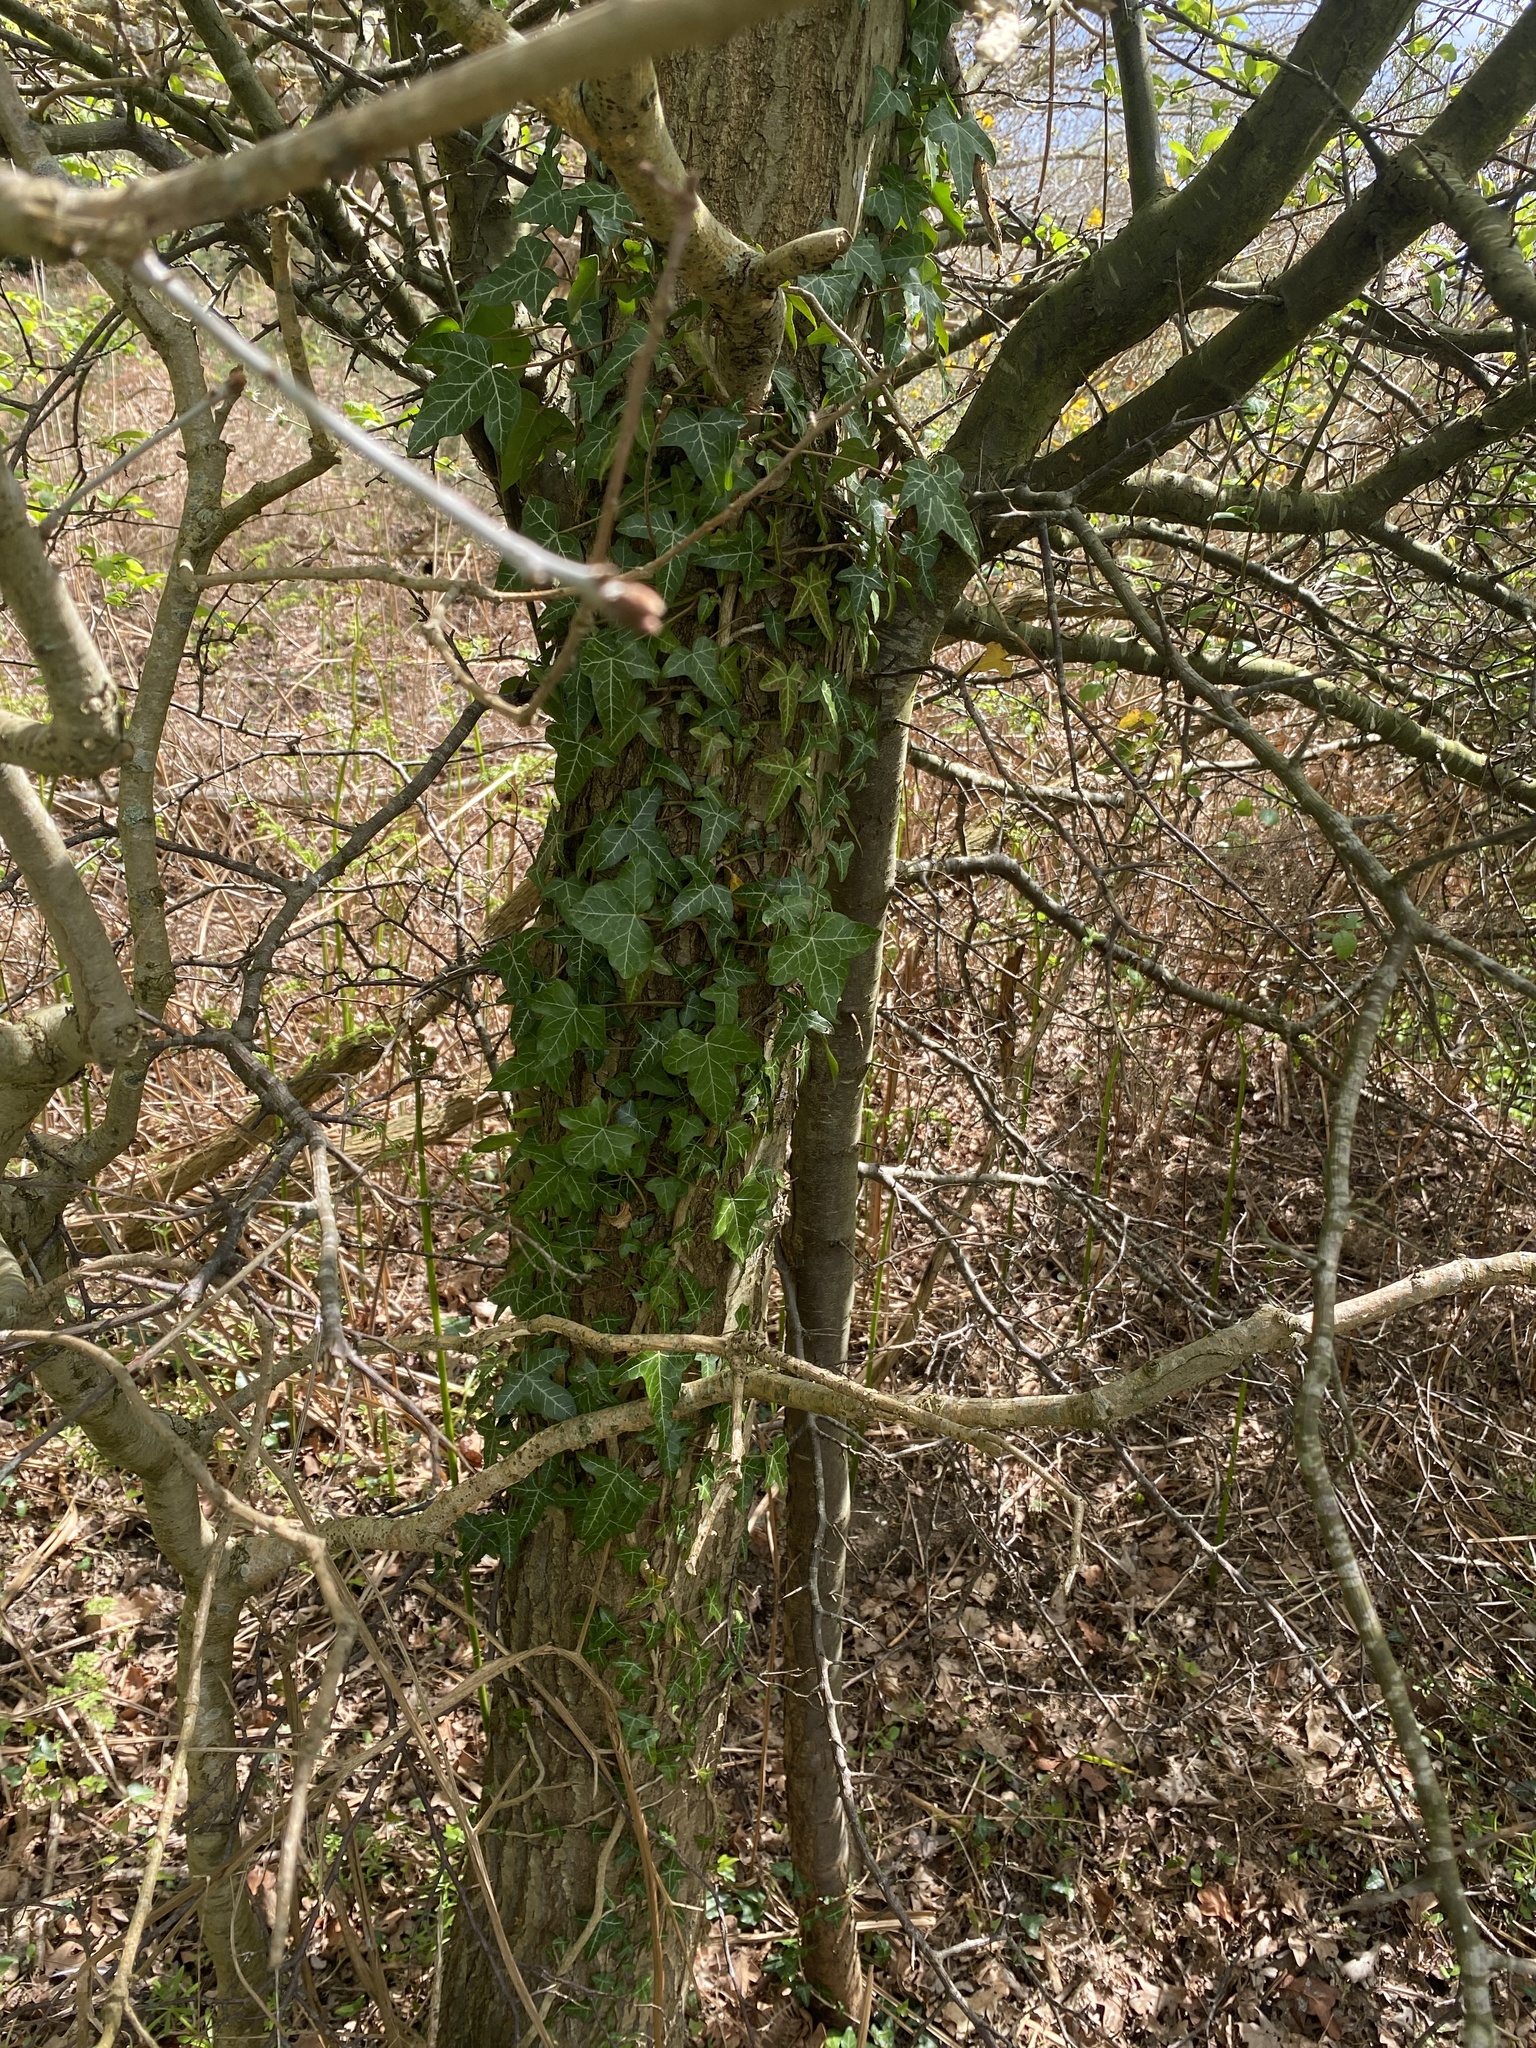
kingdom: Plantae
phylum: Tracheophyta
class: Magnoliopsida
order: Apiales
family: Araliaceae
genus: Hedera
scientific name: Hedera helix
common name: Ivy
